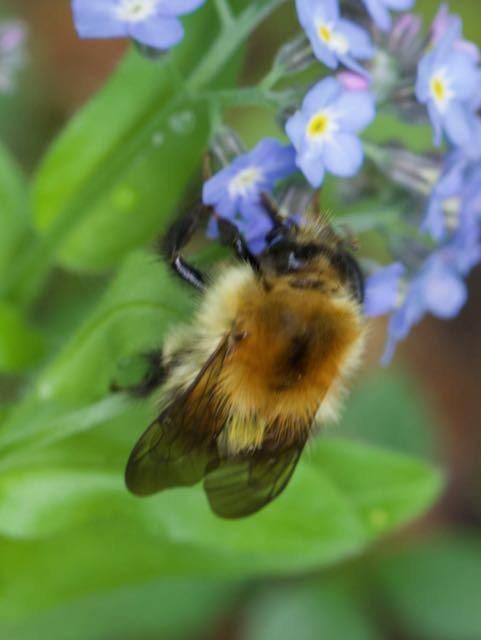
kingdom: Animalia
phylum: Arthropoda
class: Insecta
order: Hymenoptera
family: Apidae
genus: Bombus
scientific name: Bombus pascuorum
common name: Common carder bee
